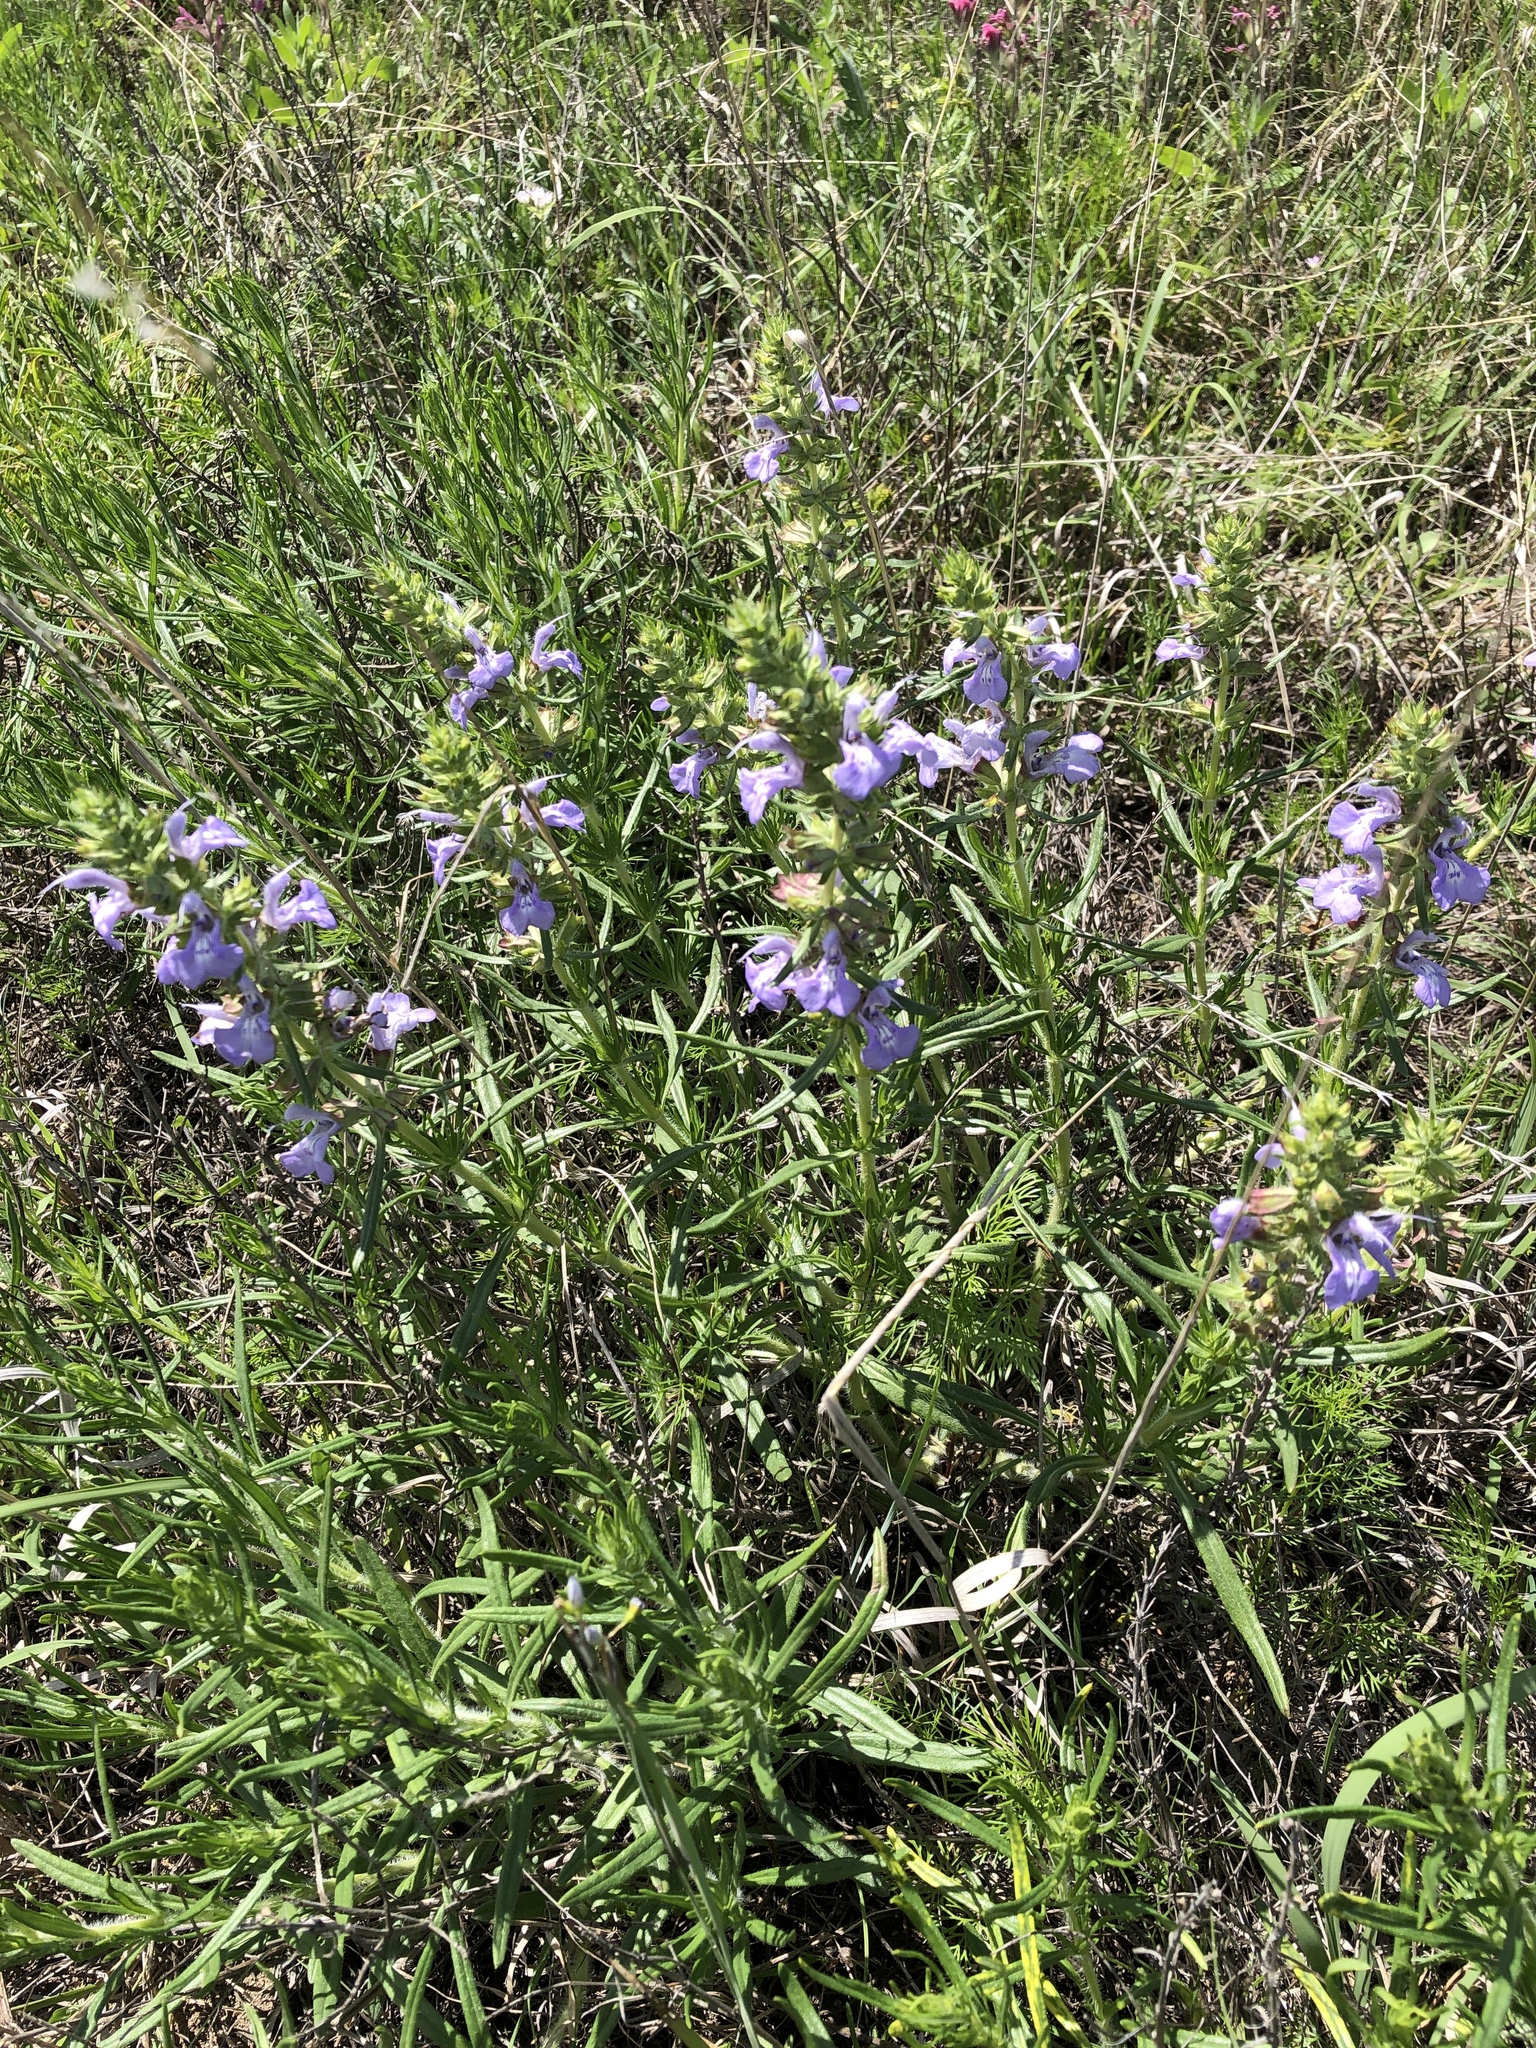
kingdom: Plantae
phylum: Tracheophyta
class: Magnoliopsida
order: Lamiales
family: Lamiaceae
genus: Salvia
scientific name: Salvia engelmannii
